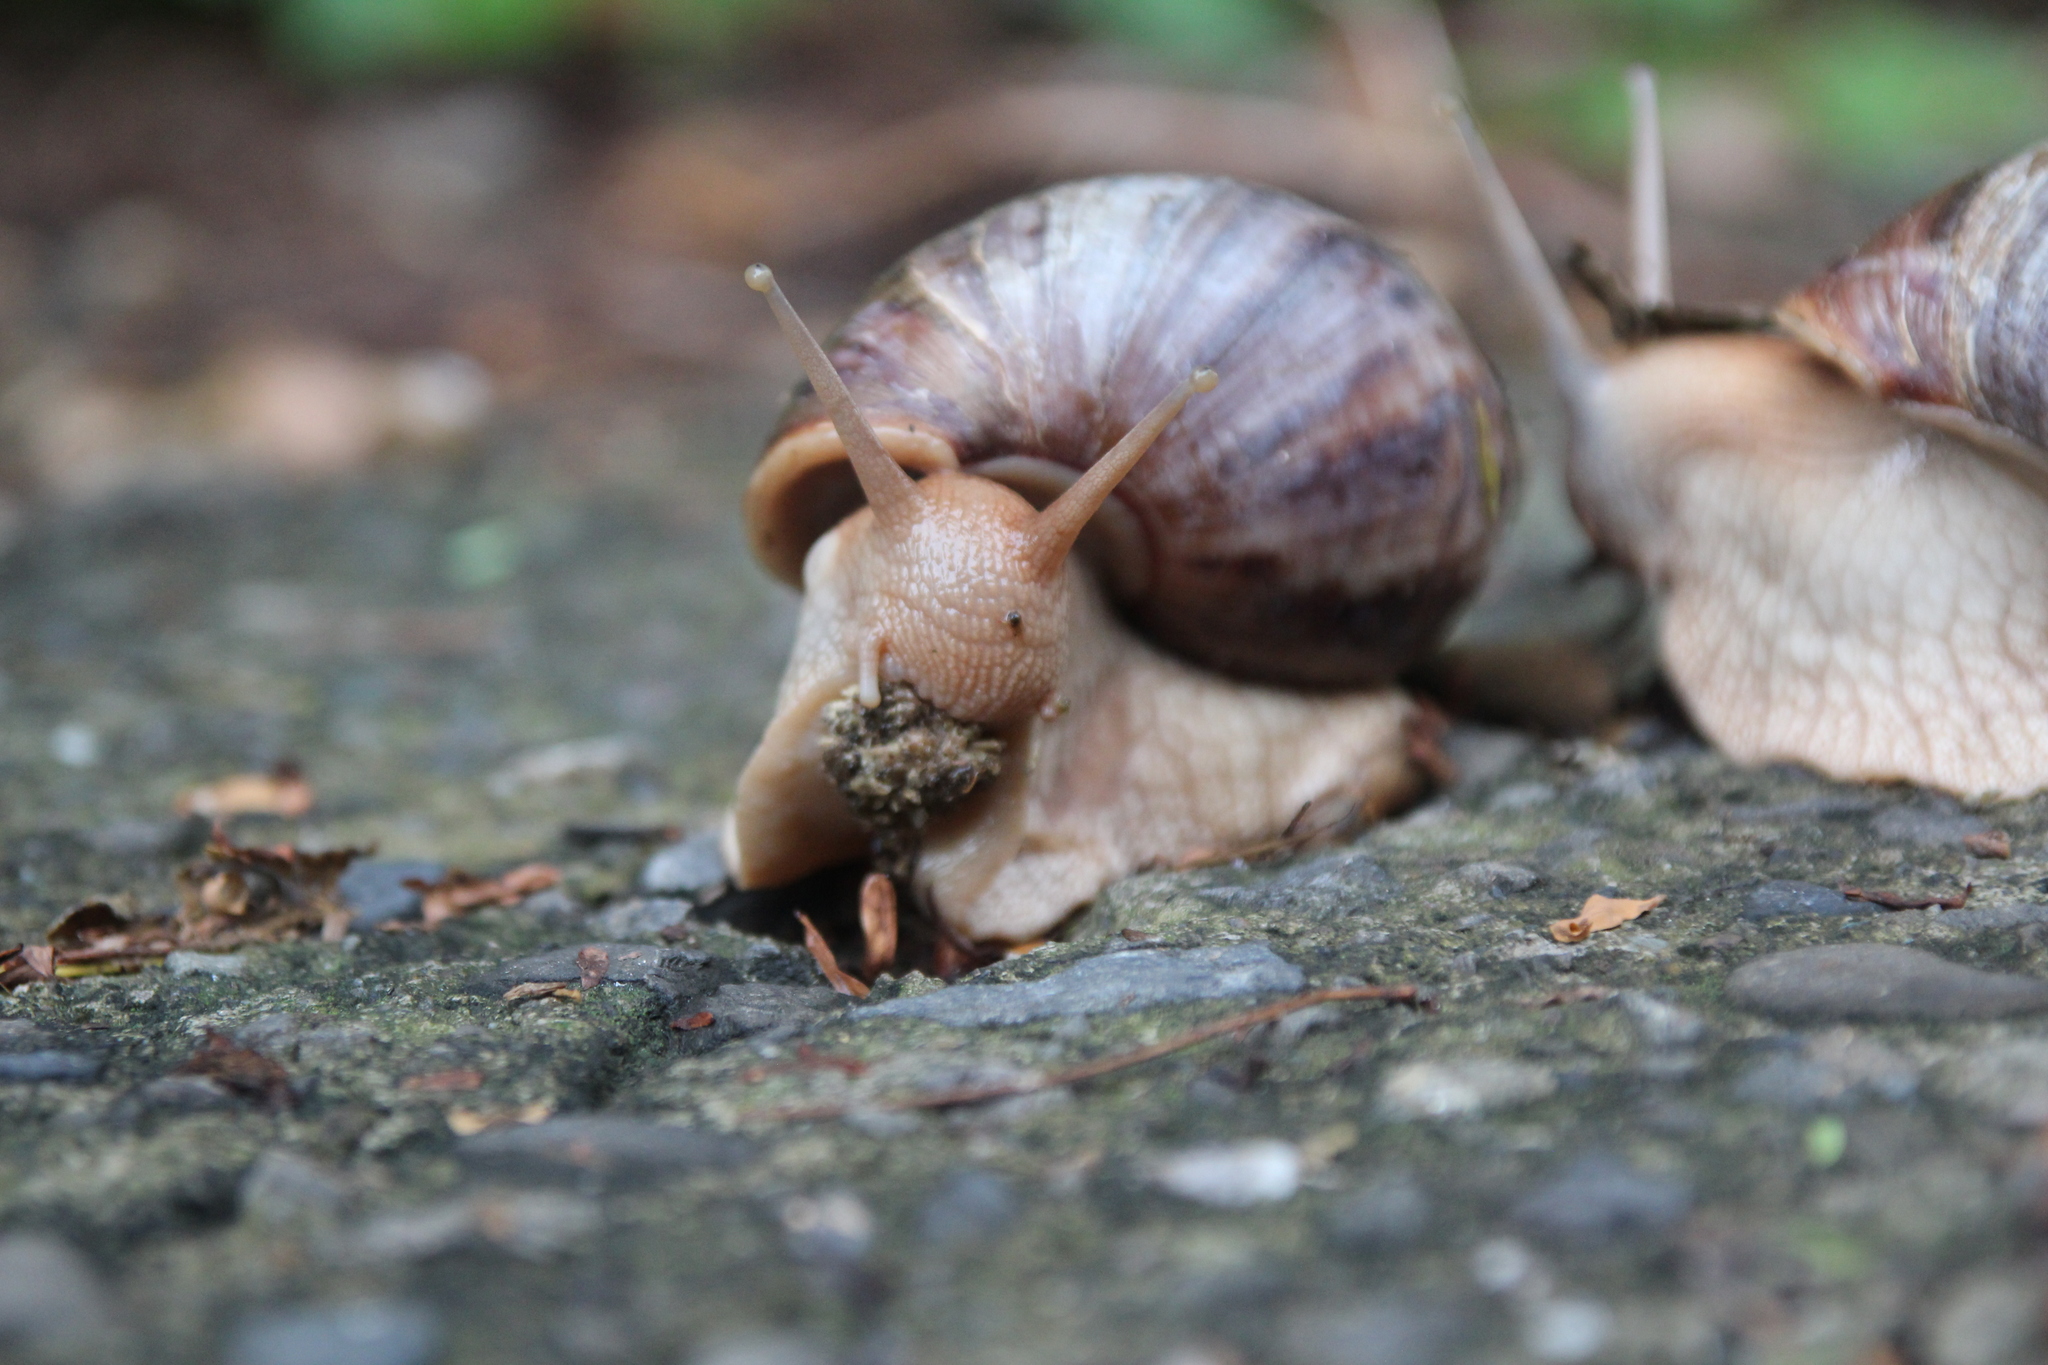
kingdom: Animalia
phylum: Mollusca
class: Gastropoda
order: Stylommatophora
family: Achatinidae
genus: Lissachatina
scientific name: Lissachatina immaculata
